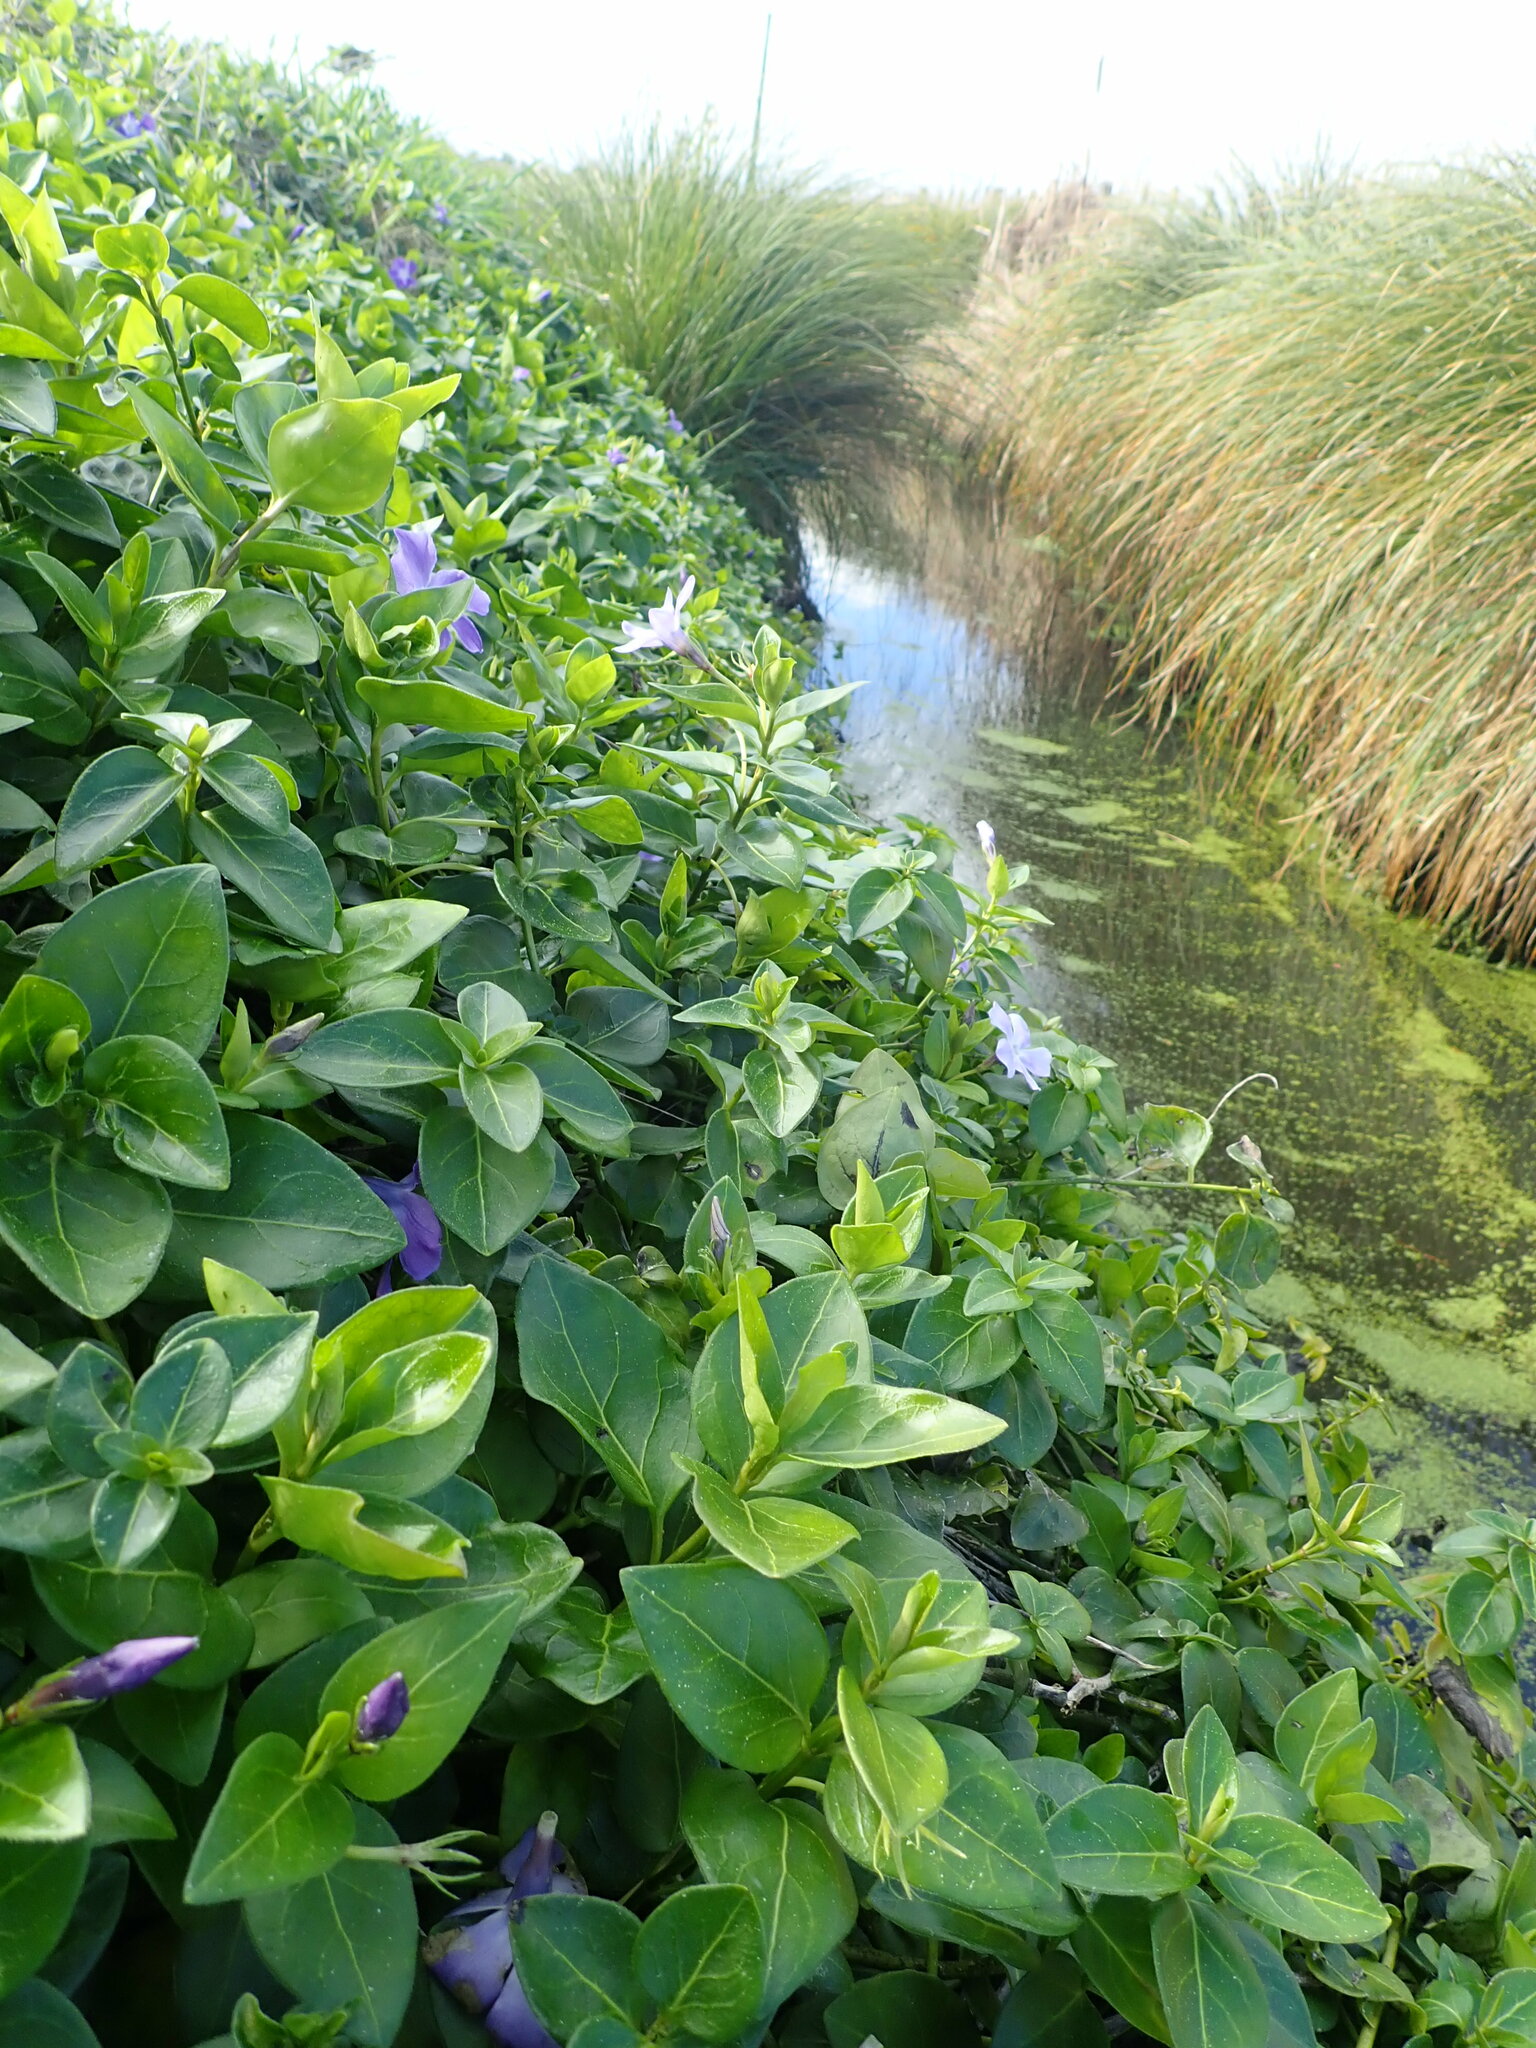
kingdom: Plantae
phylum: Tracheophyta
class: Magnoliopsida
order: Gentianales
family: Apocynaceae
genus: Vinca
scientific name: Vinca major
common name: Greater periwinkle
